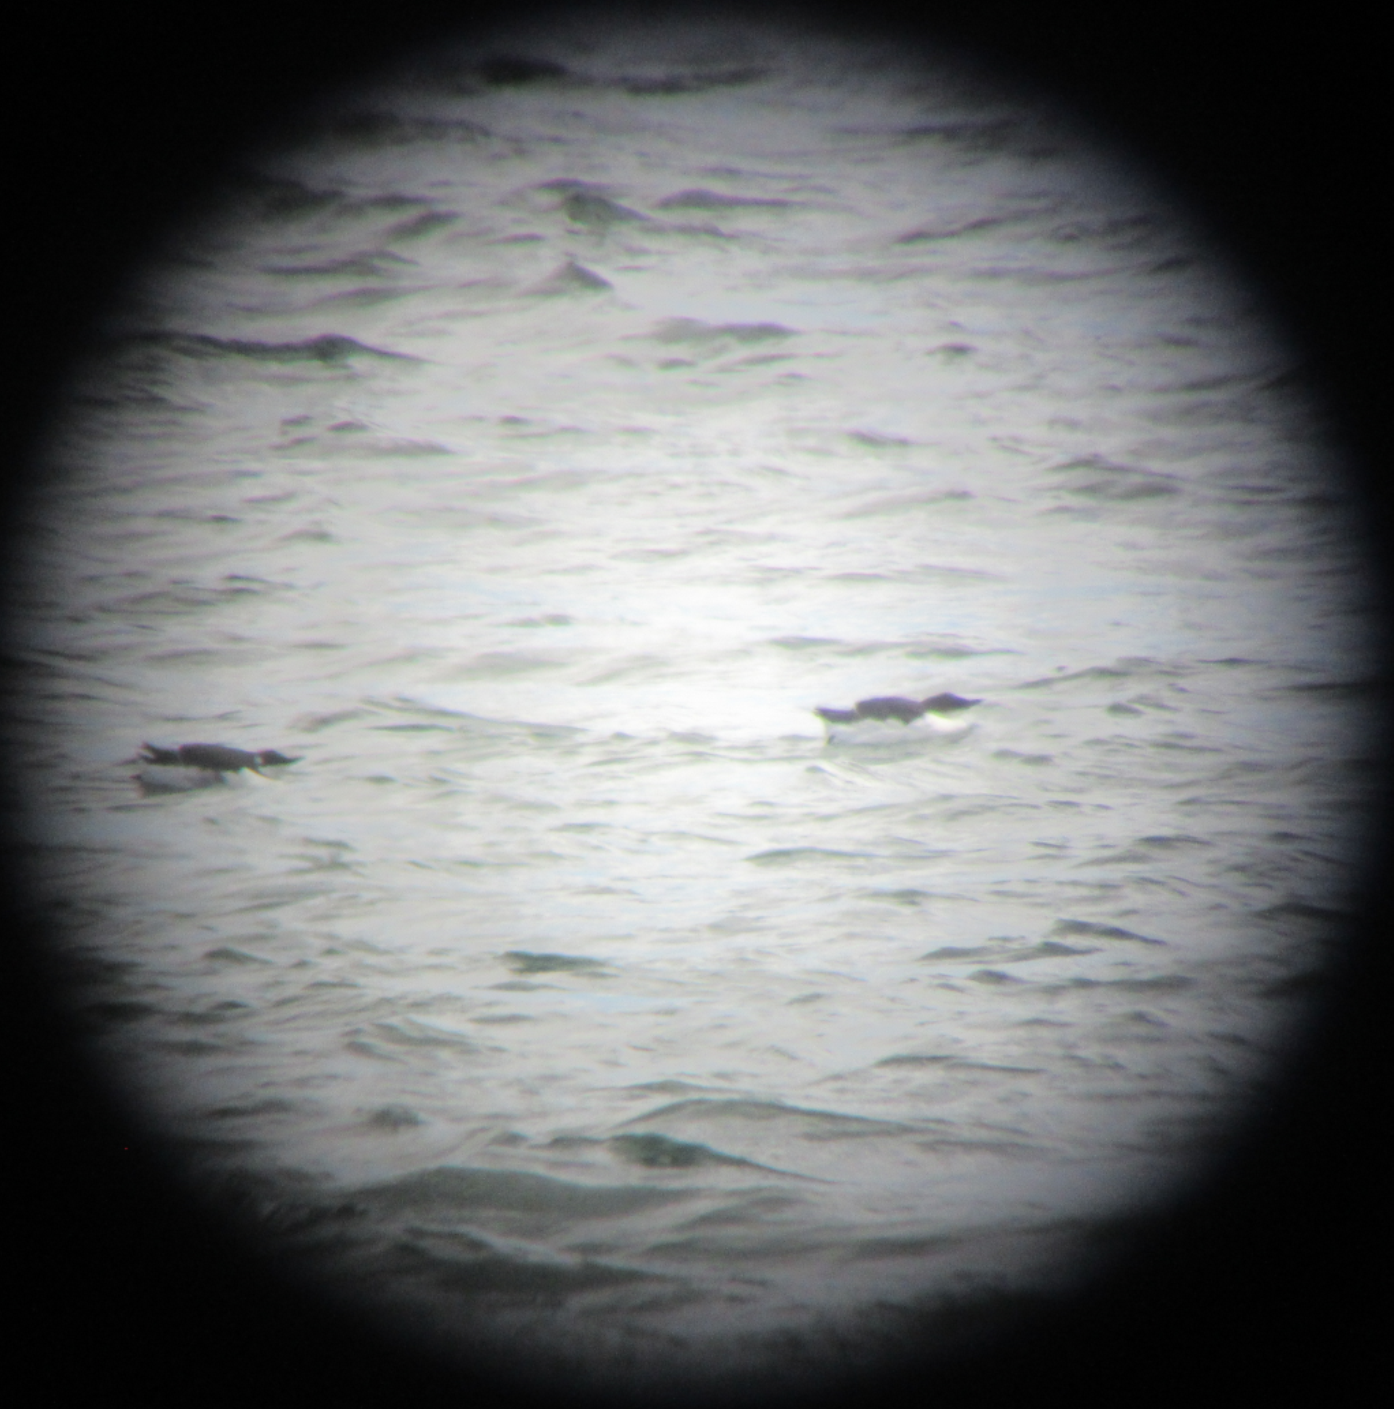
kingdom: Animalia
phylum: Chordata
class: Aves
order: Charadriiformes
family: Alcidae
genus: Uria
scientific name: Uria lomvia
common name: Thick-billed murre
